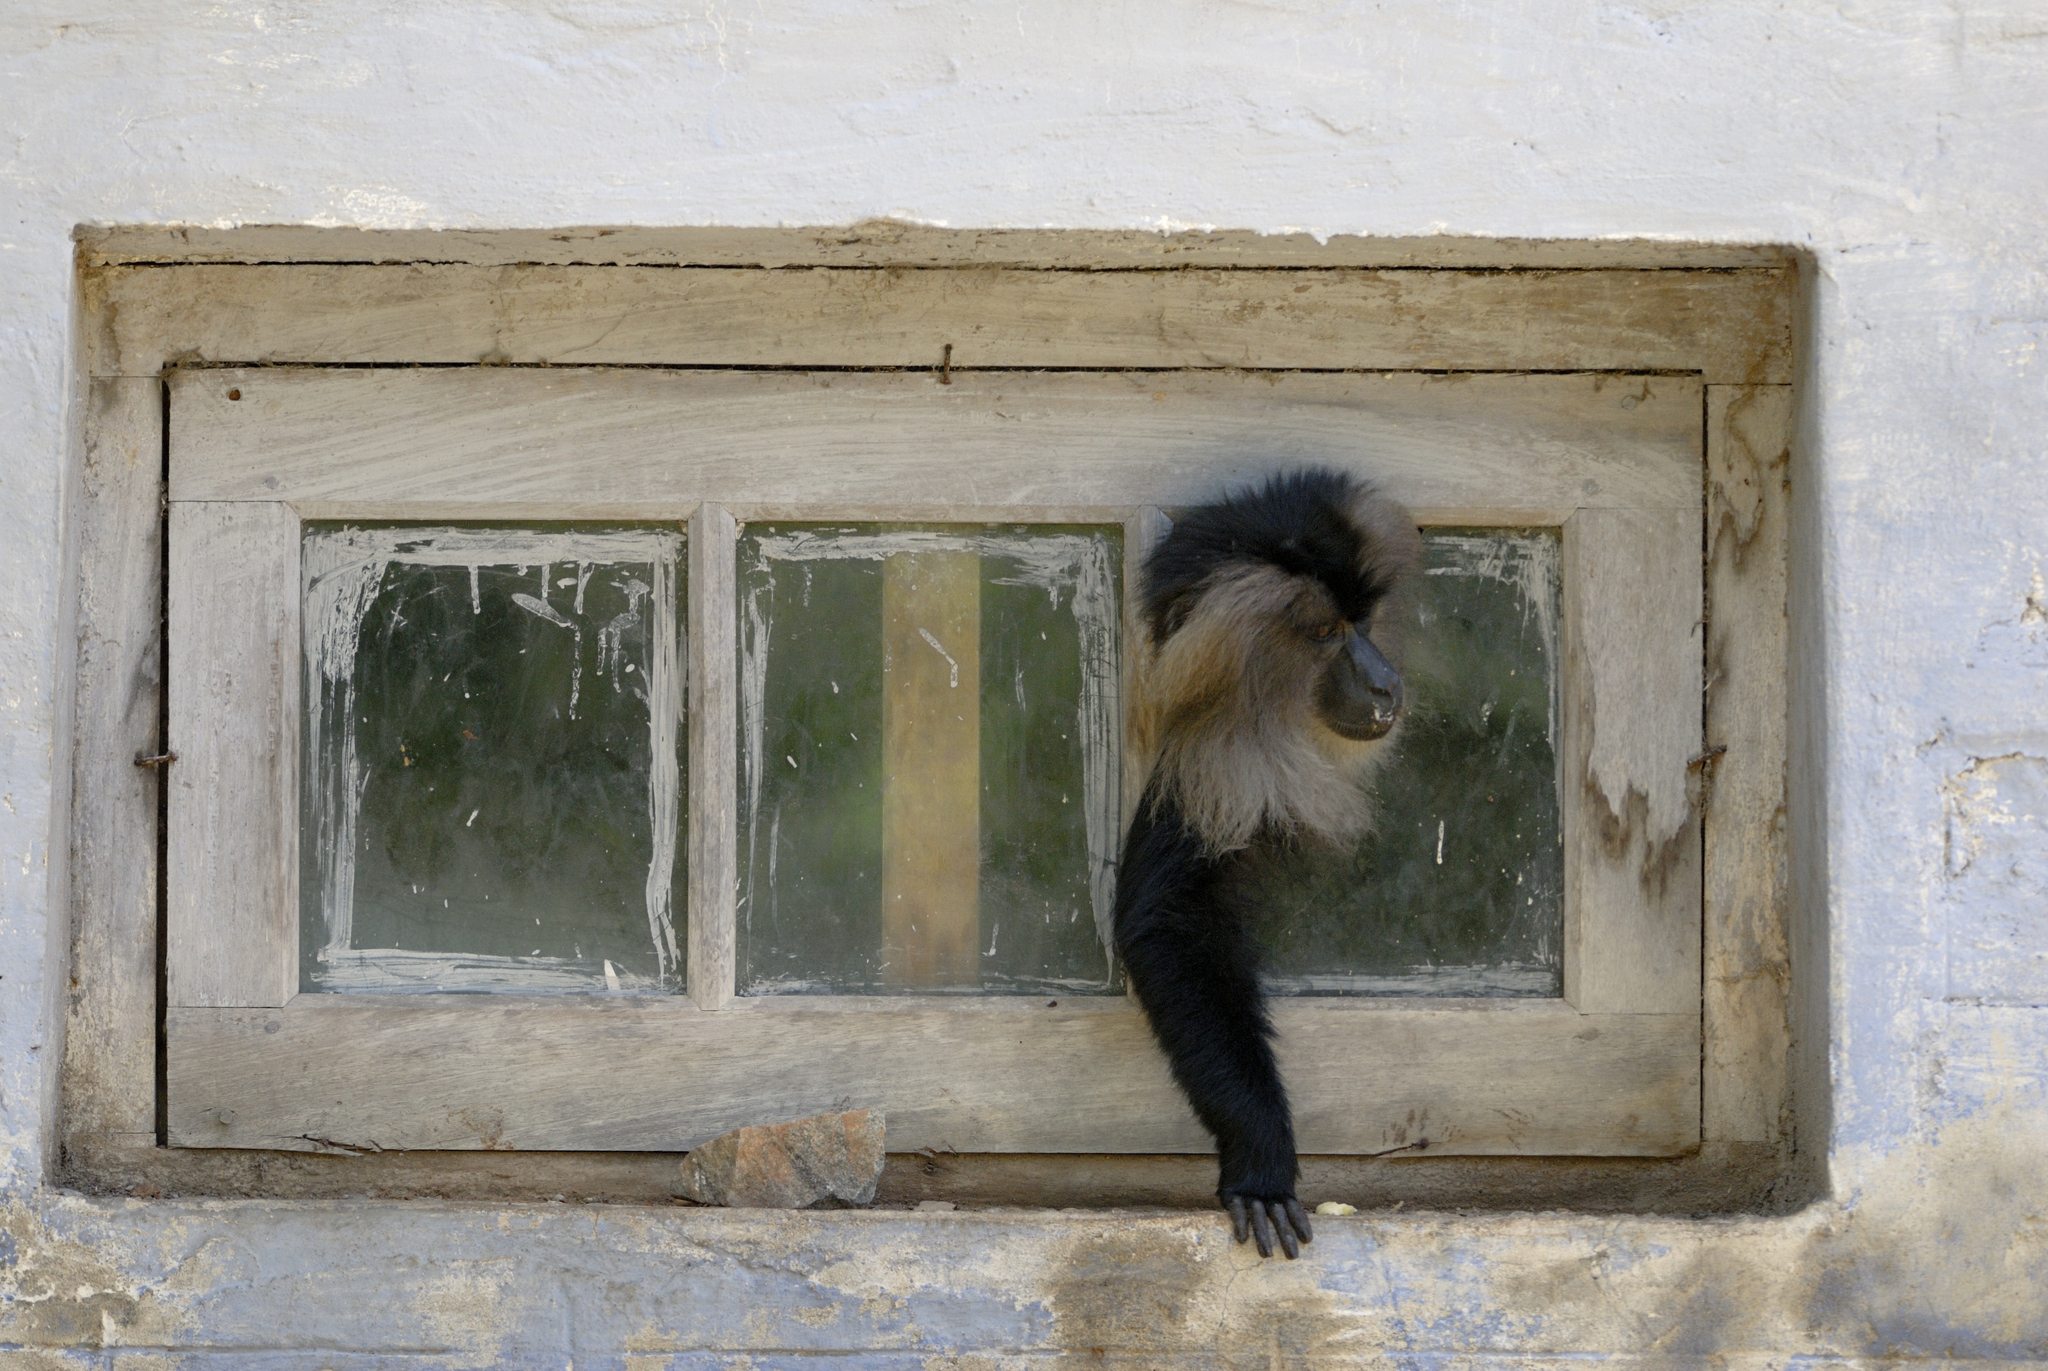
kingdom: Animalia
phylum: Chordata
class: Mammalia
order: Primates
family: Cercopithecidae
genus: Macaca
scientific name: Macaca silenus
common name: Lion-tailed macaque
